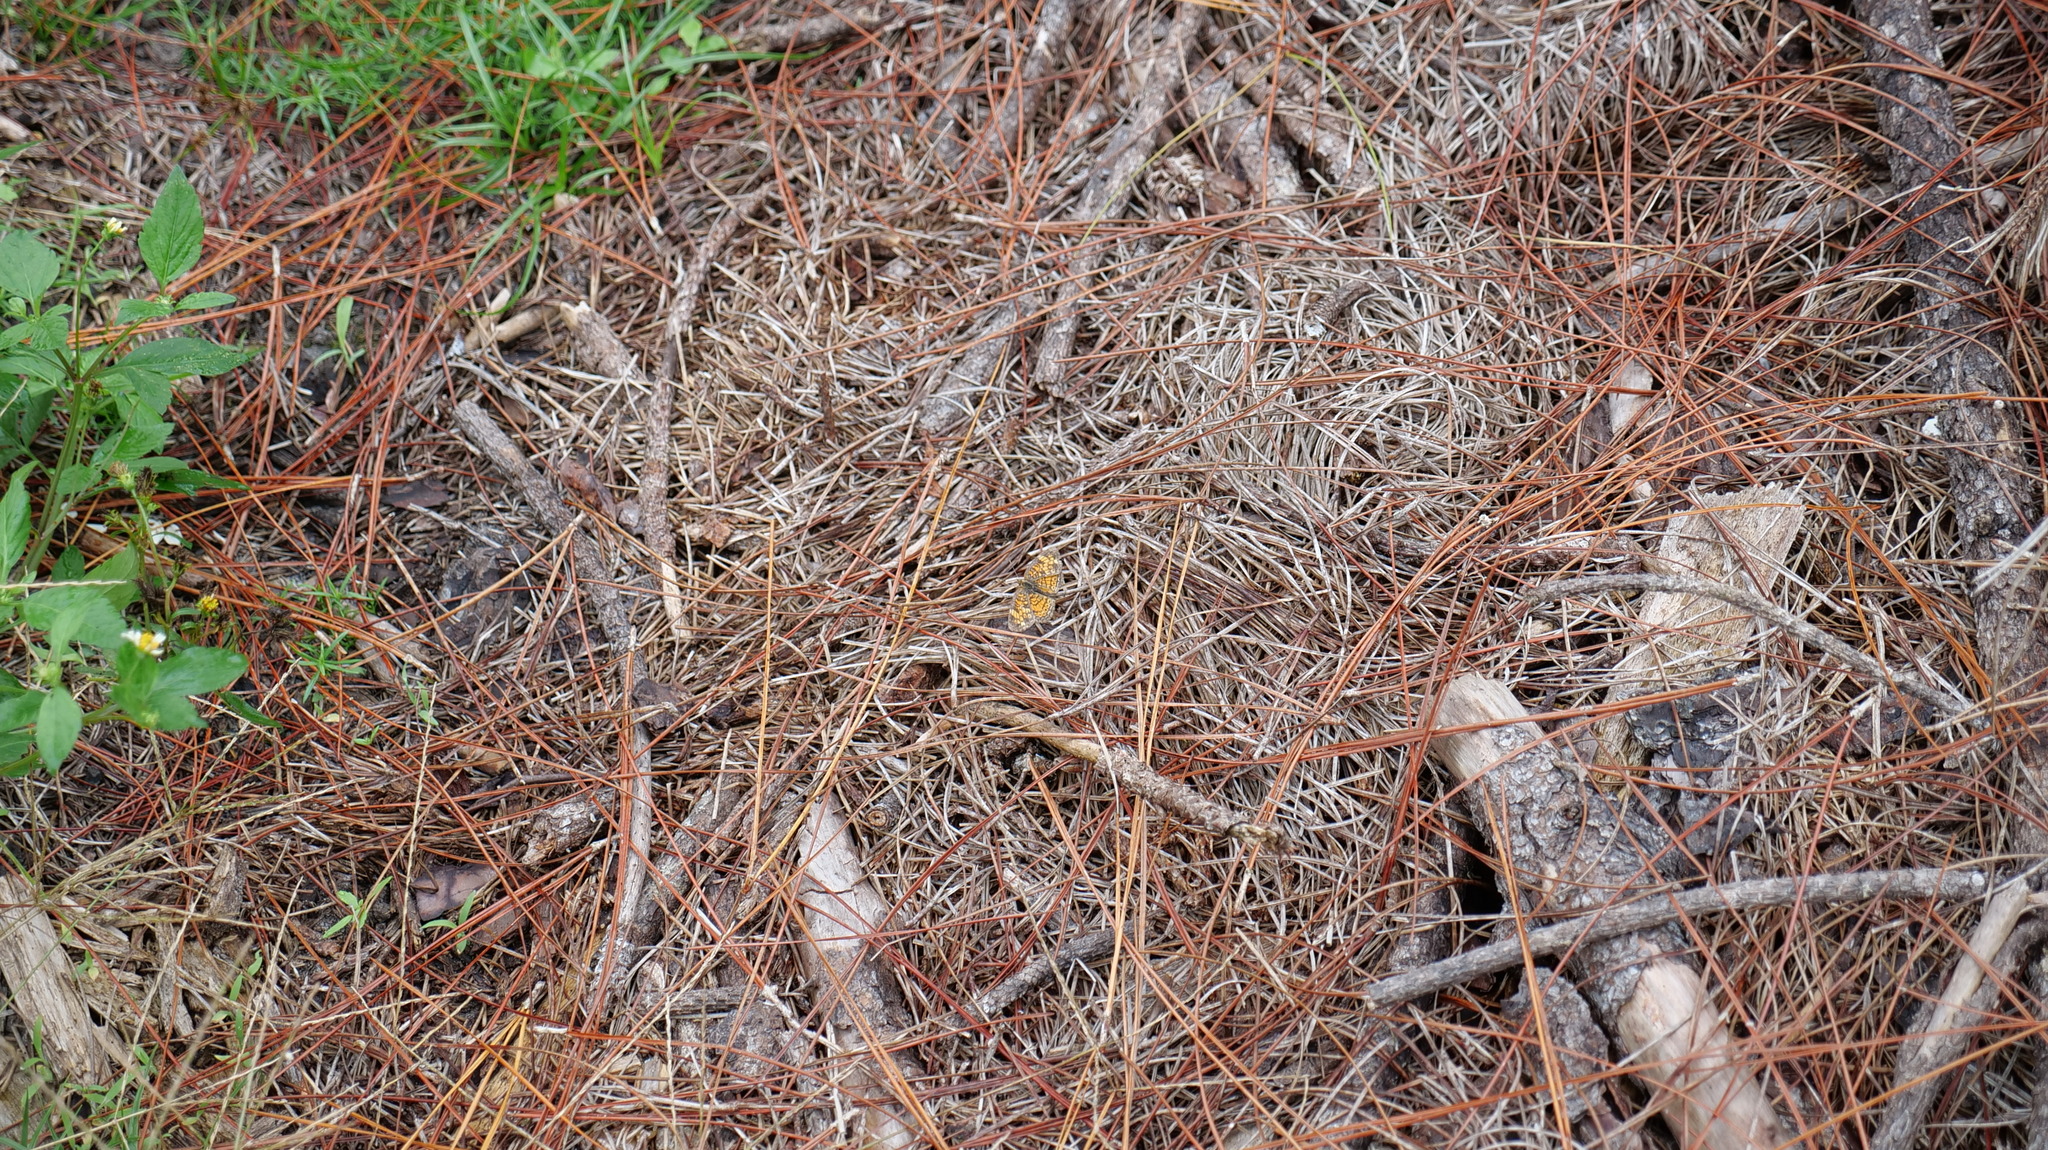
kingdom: Animalia
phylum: Arthropoda
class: Insecta
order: Lepidoptera
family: Nymphalidae
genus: Phyciodes
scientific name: Phyciodes tharos
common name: Pearl crescent
